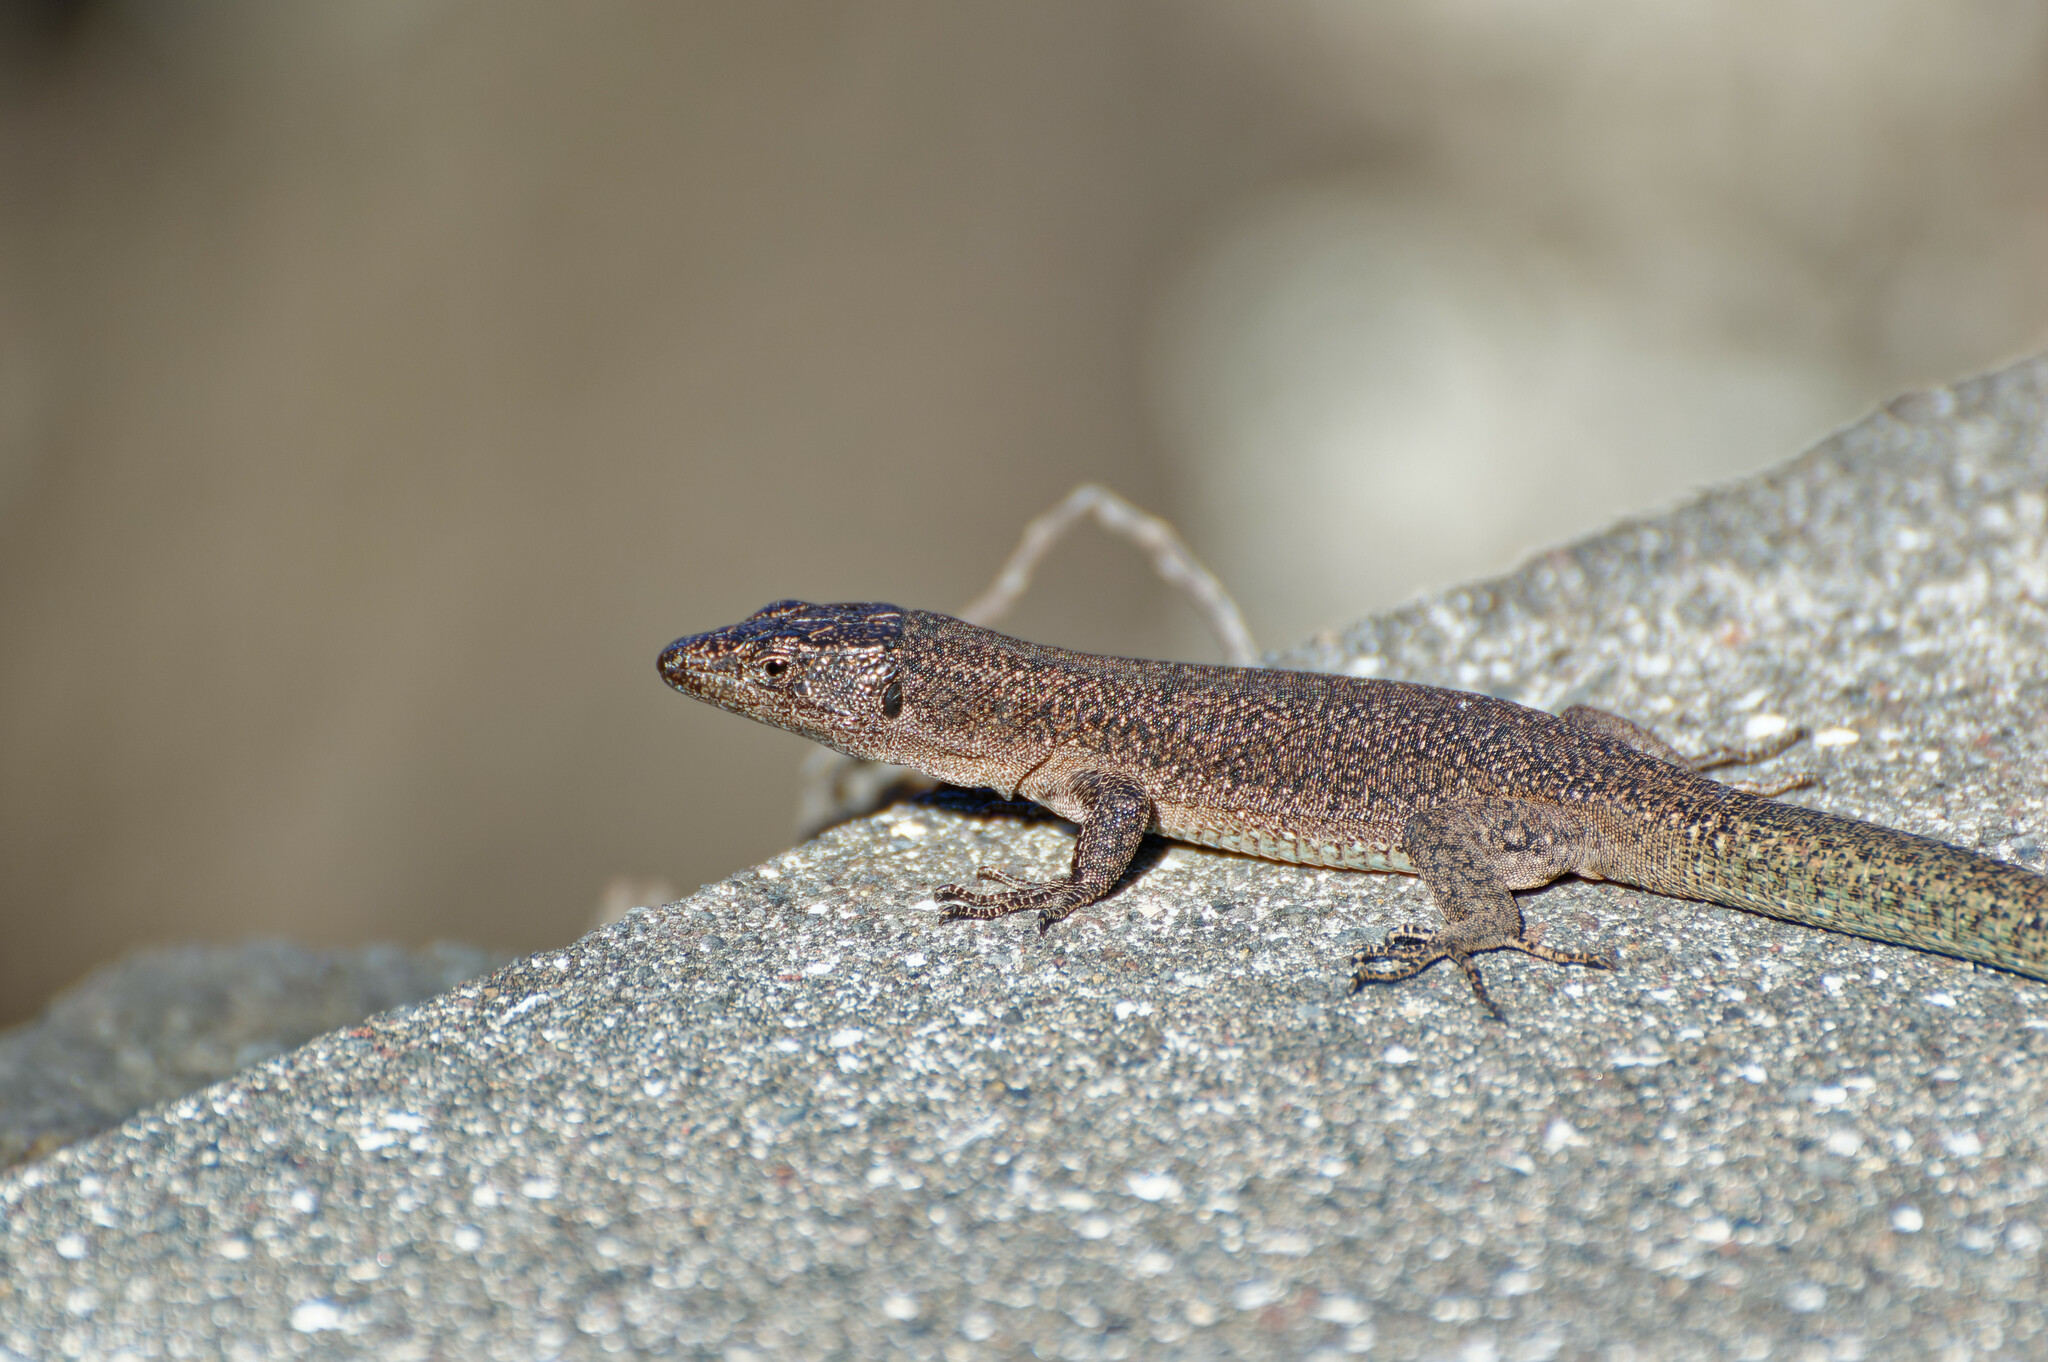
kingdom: Animalia
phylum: Chordata
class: Squamata
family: Lacertidae
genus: Teira
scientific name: Teira dugesii
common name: Madeira lizard
